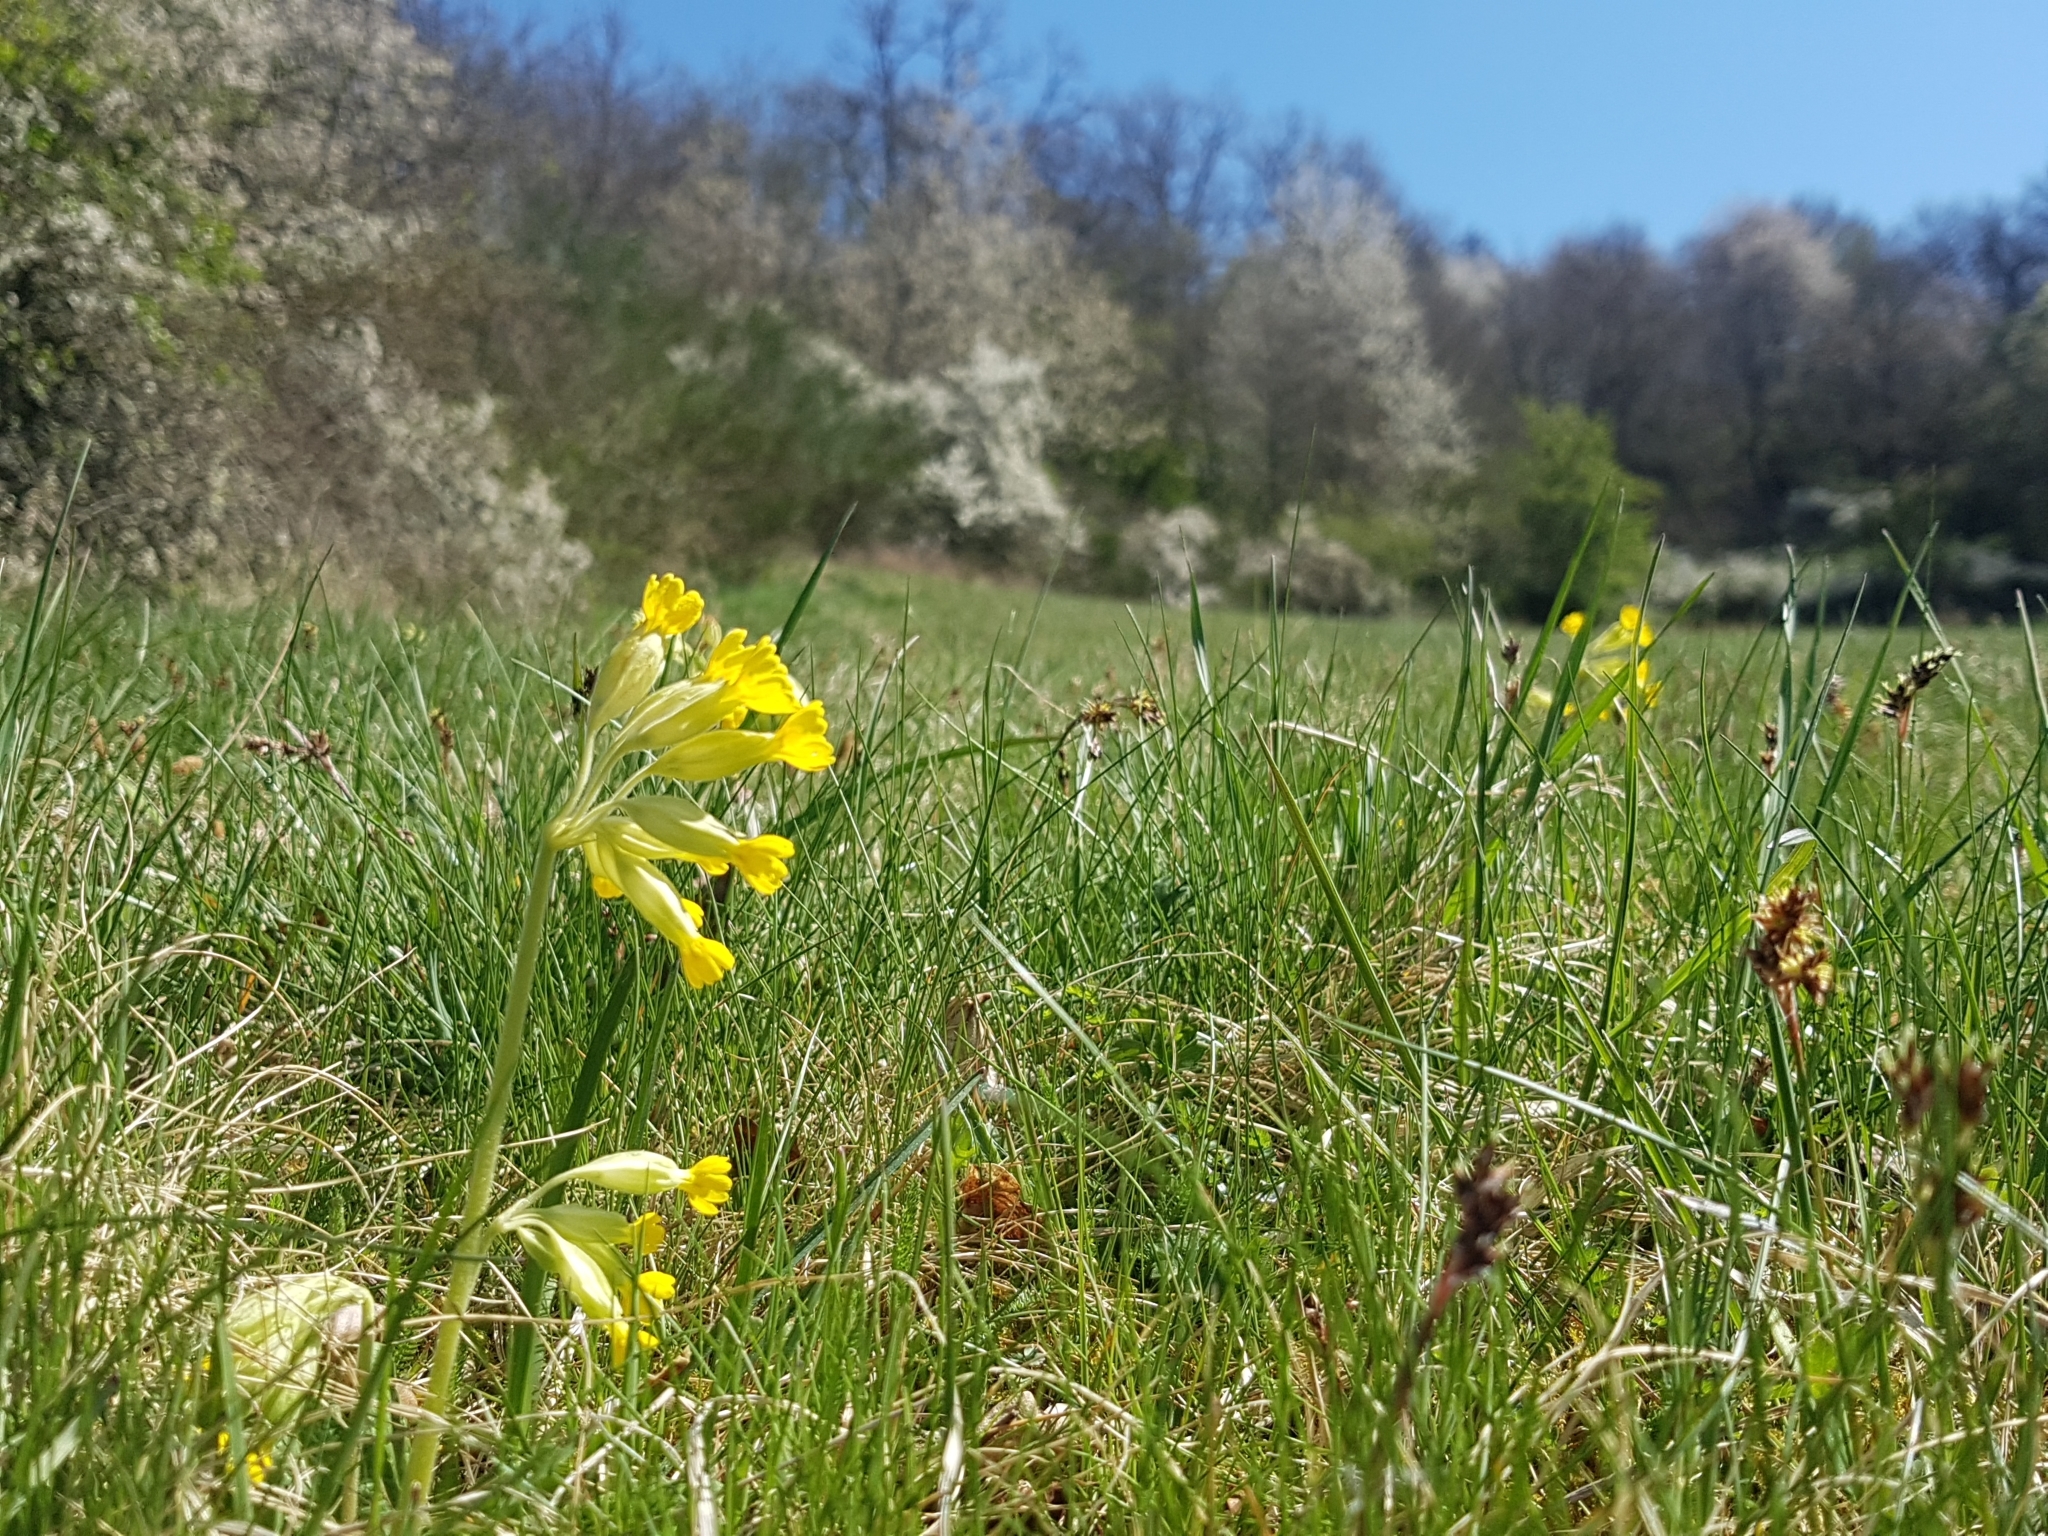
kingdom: Plantae
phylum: Tracheophyta
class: Magnoliopsida
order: Ericales
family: Primulaceae
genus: Primula
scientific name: Primula veris
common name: Cowslip
